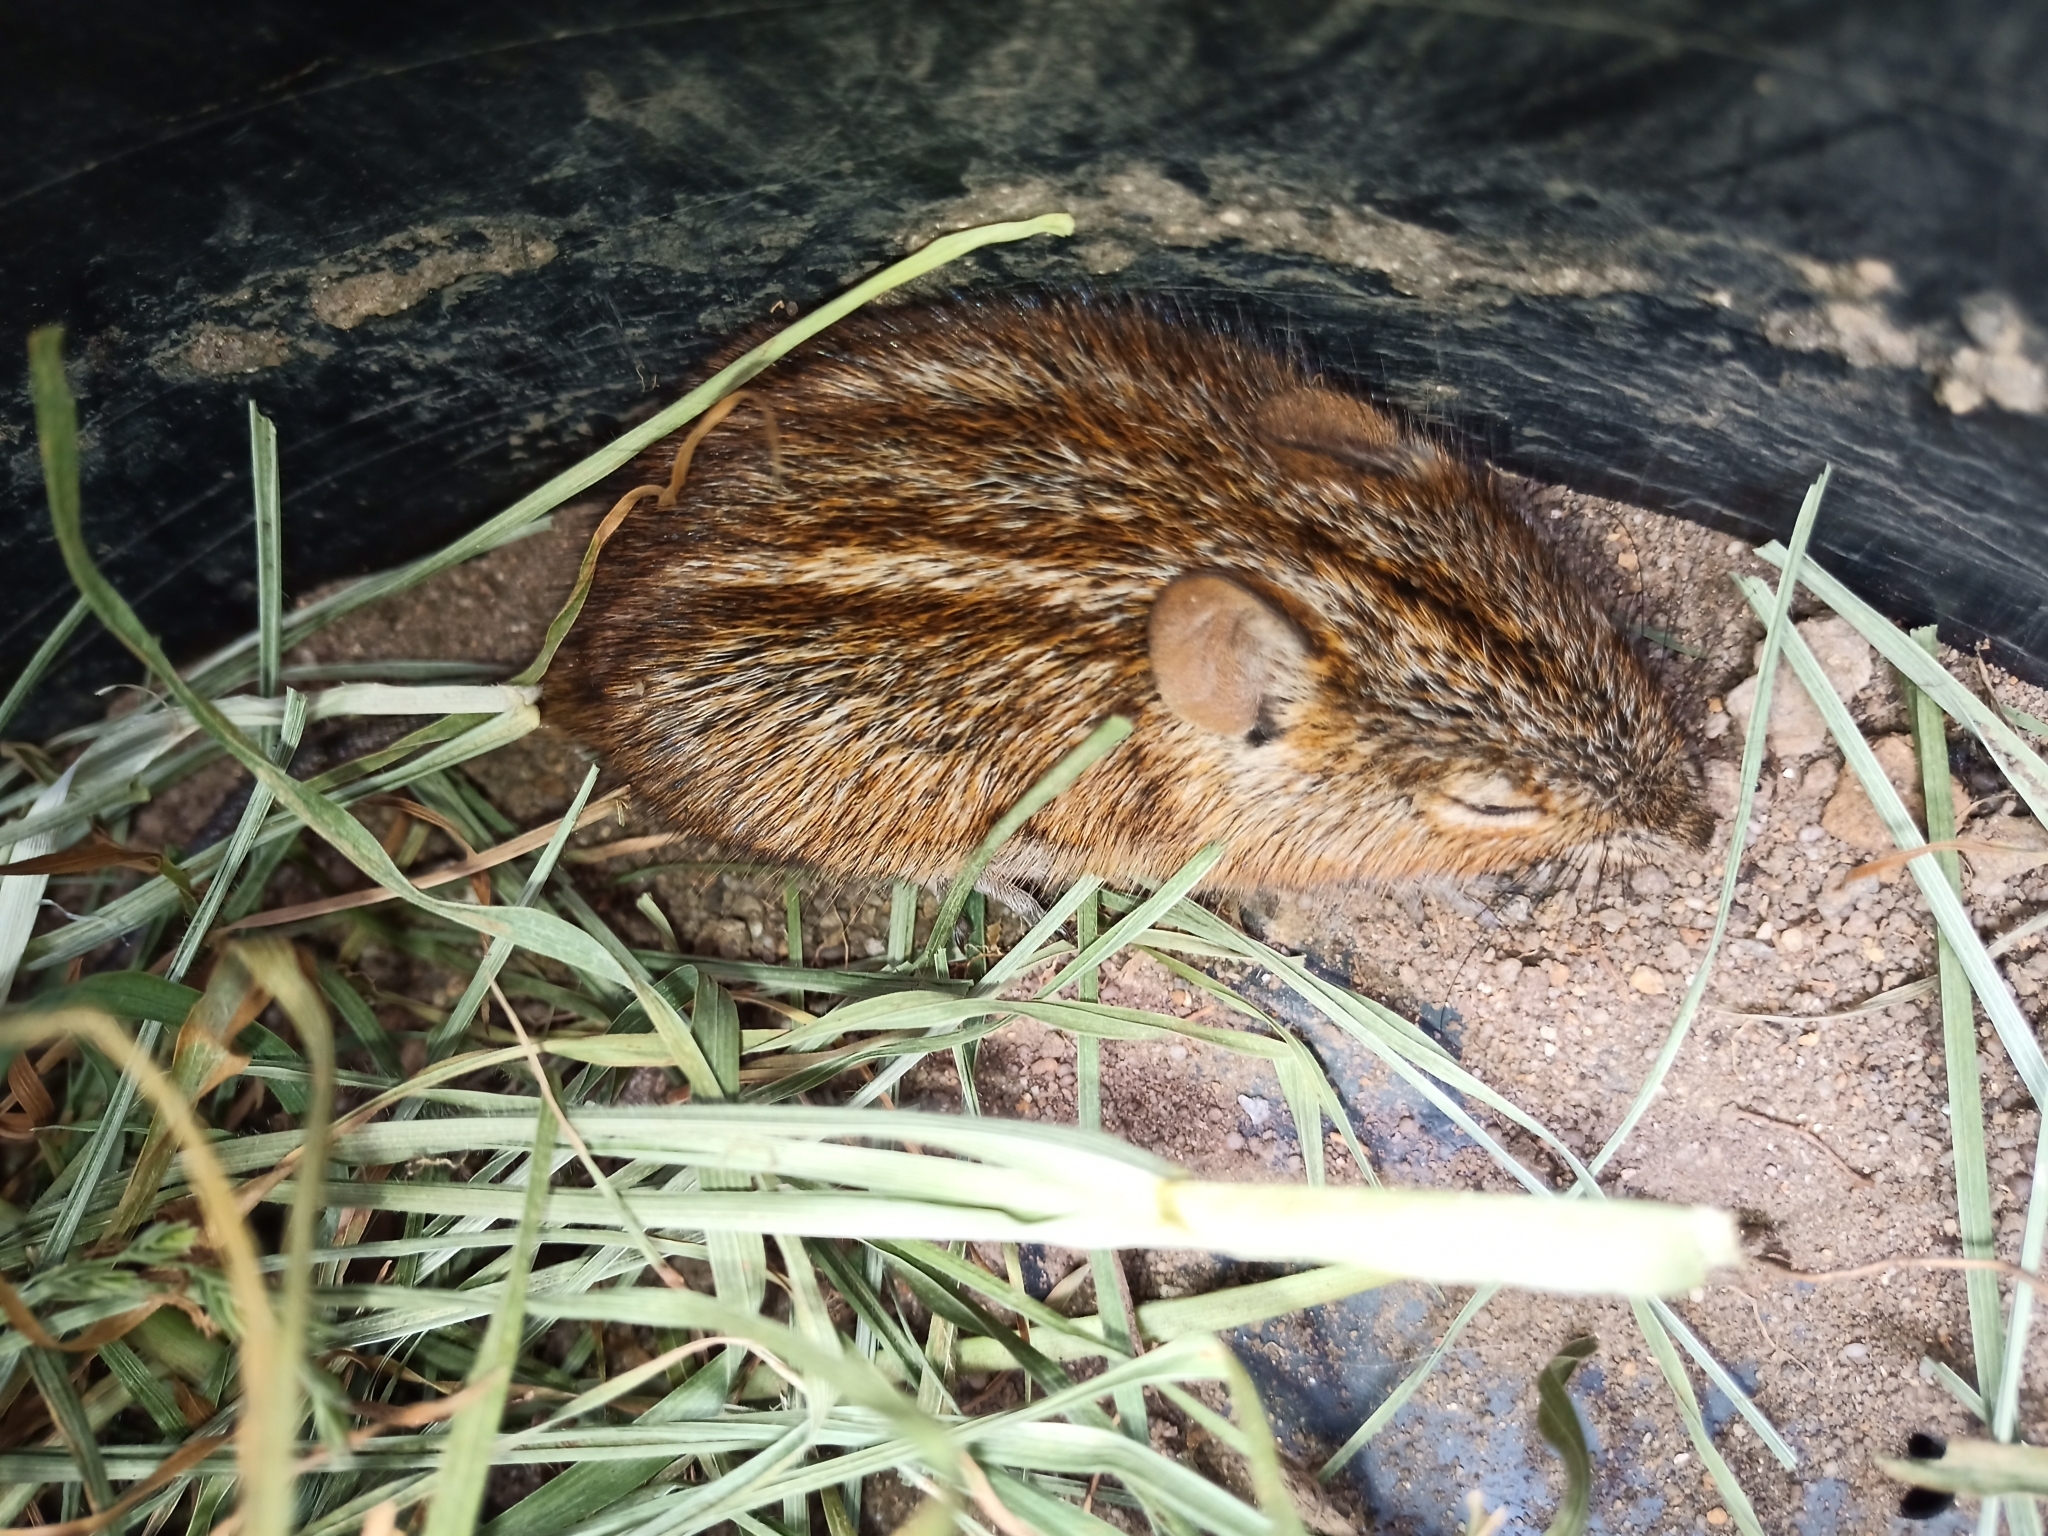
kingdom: Animalia
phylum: Chordata
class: Mammalia
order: Rodentia
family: Muridae
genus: Rhabdomys
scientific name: Rhabdomys pumilio
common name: Xeric four-striped grass rat
